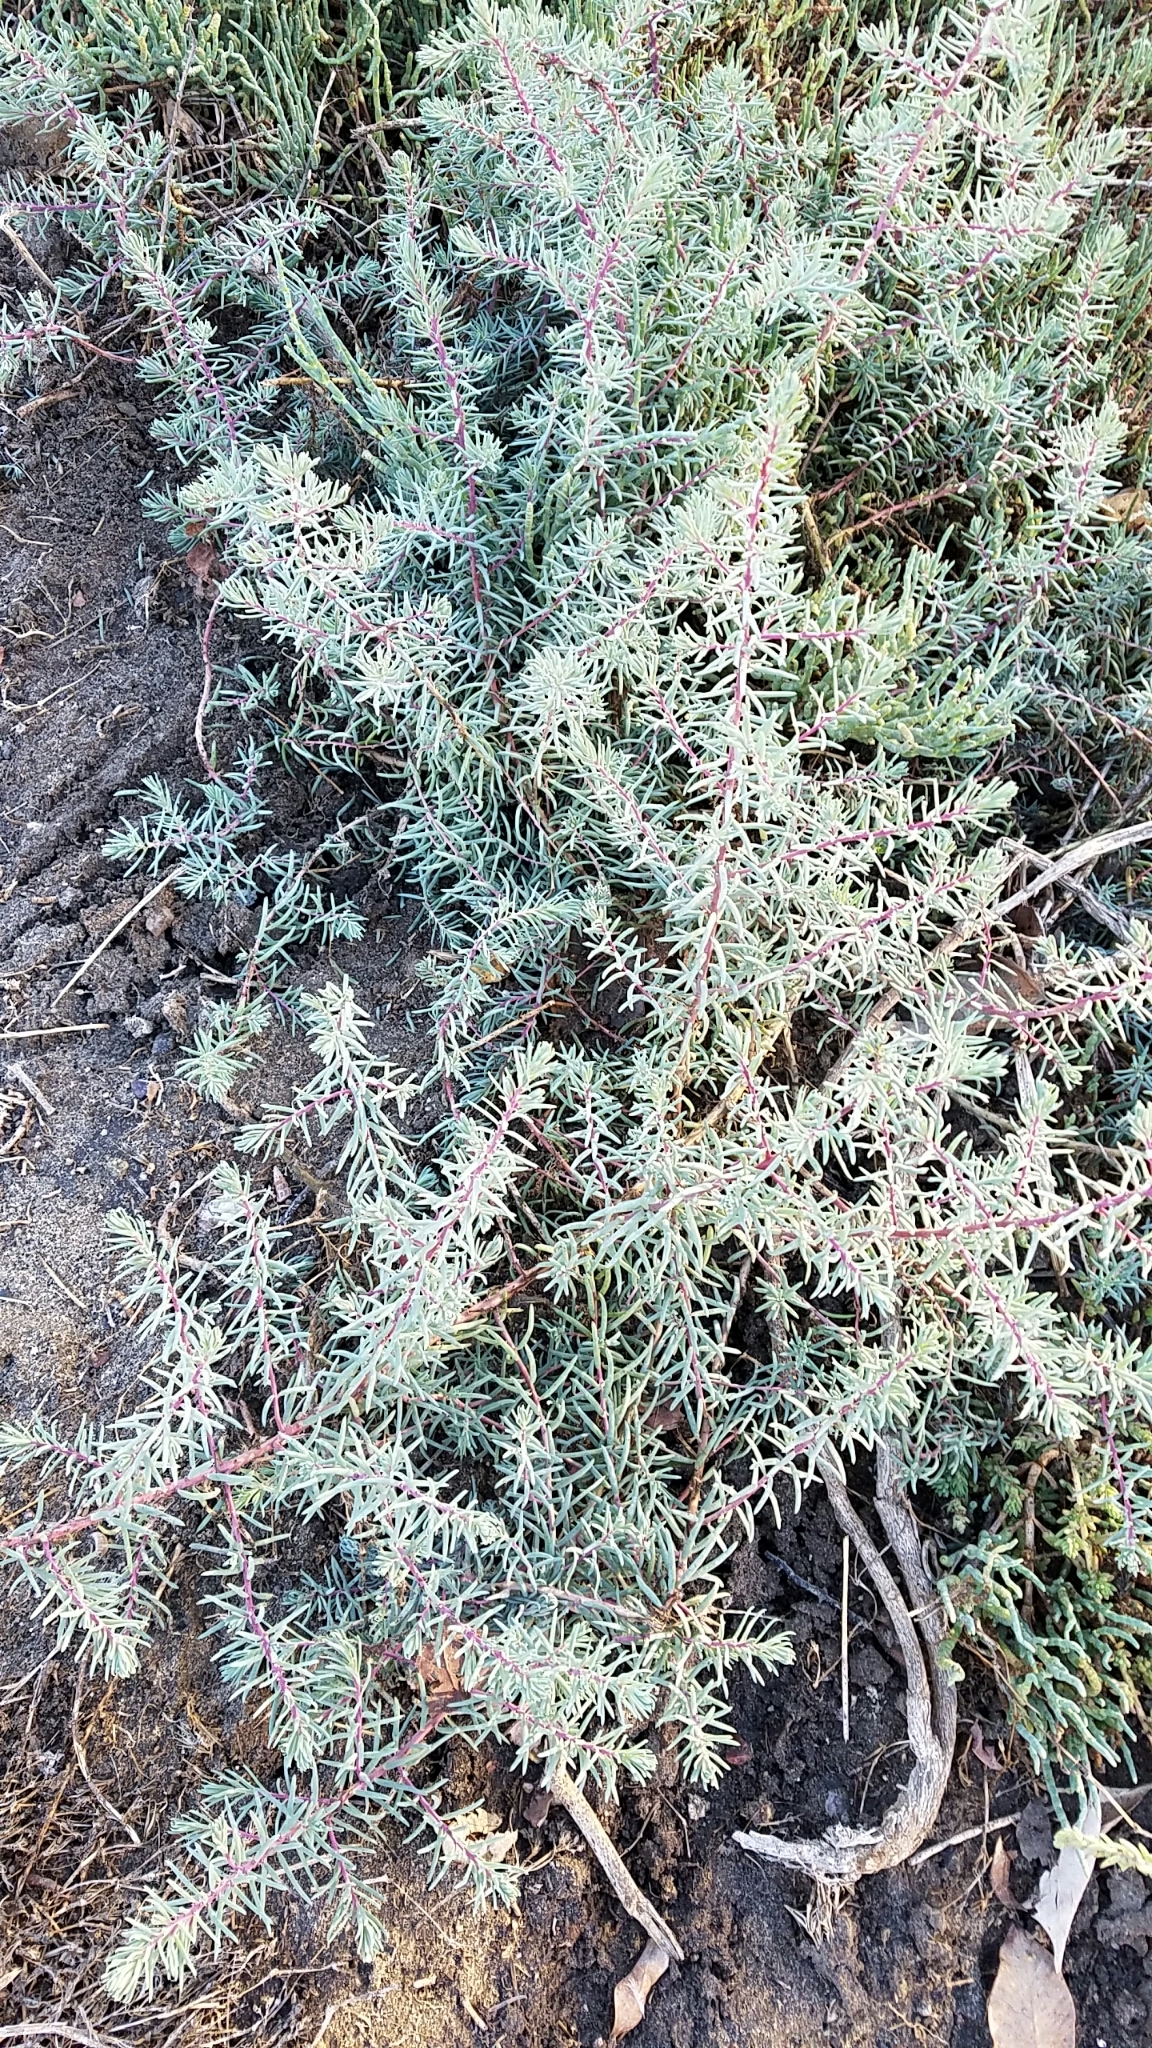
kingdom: Plantae
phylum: Tracheophyta
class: Magnoliopsida
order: Caryophyllales
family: Amaranthaceae
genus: Suaeda
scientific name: Suaeda taxifolia
